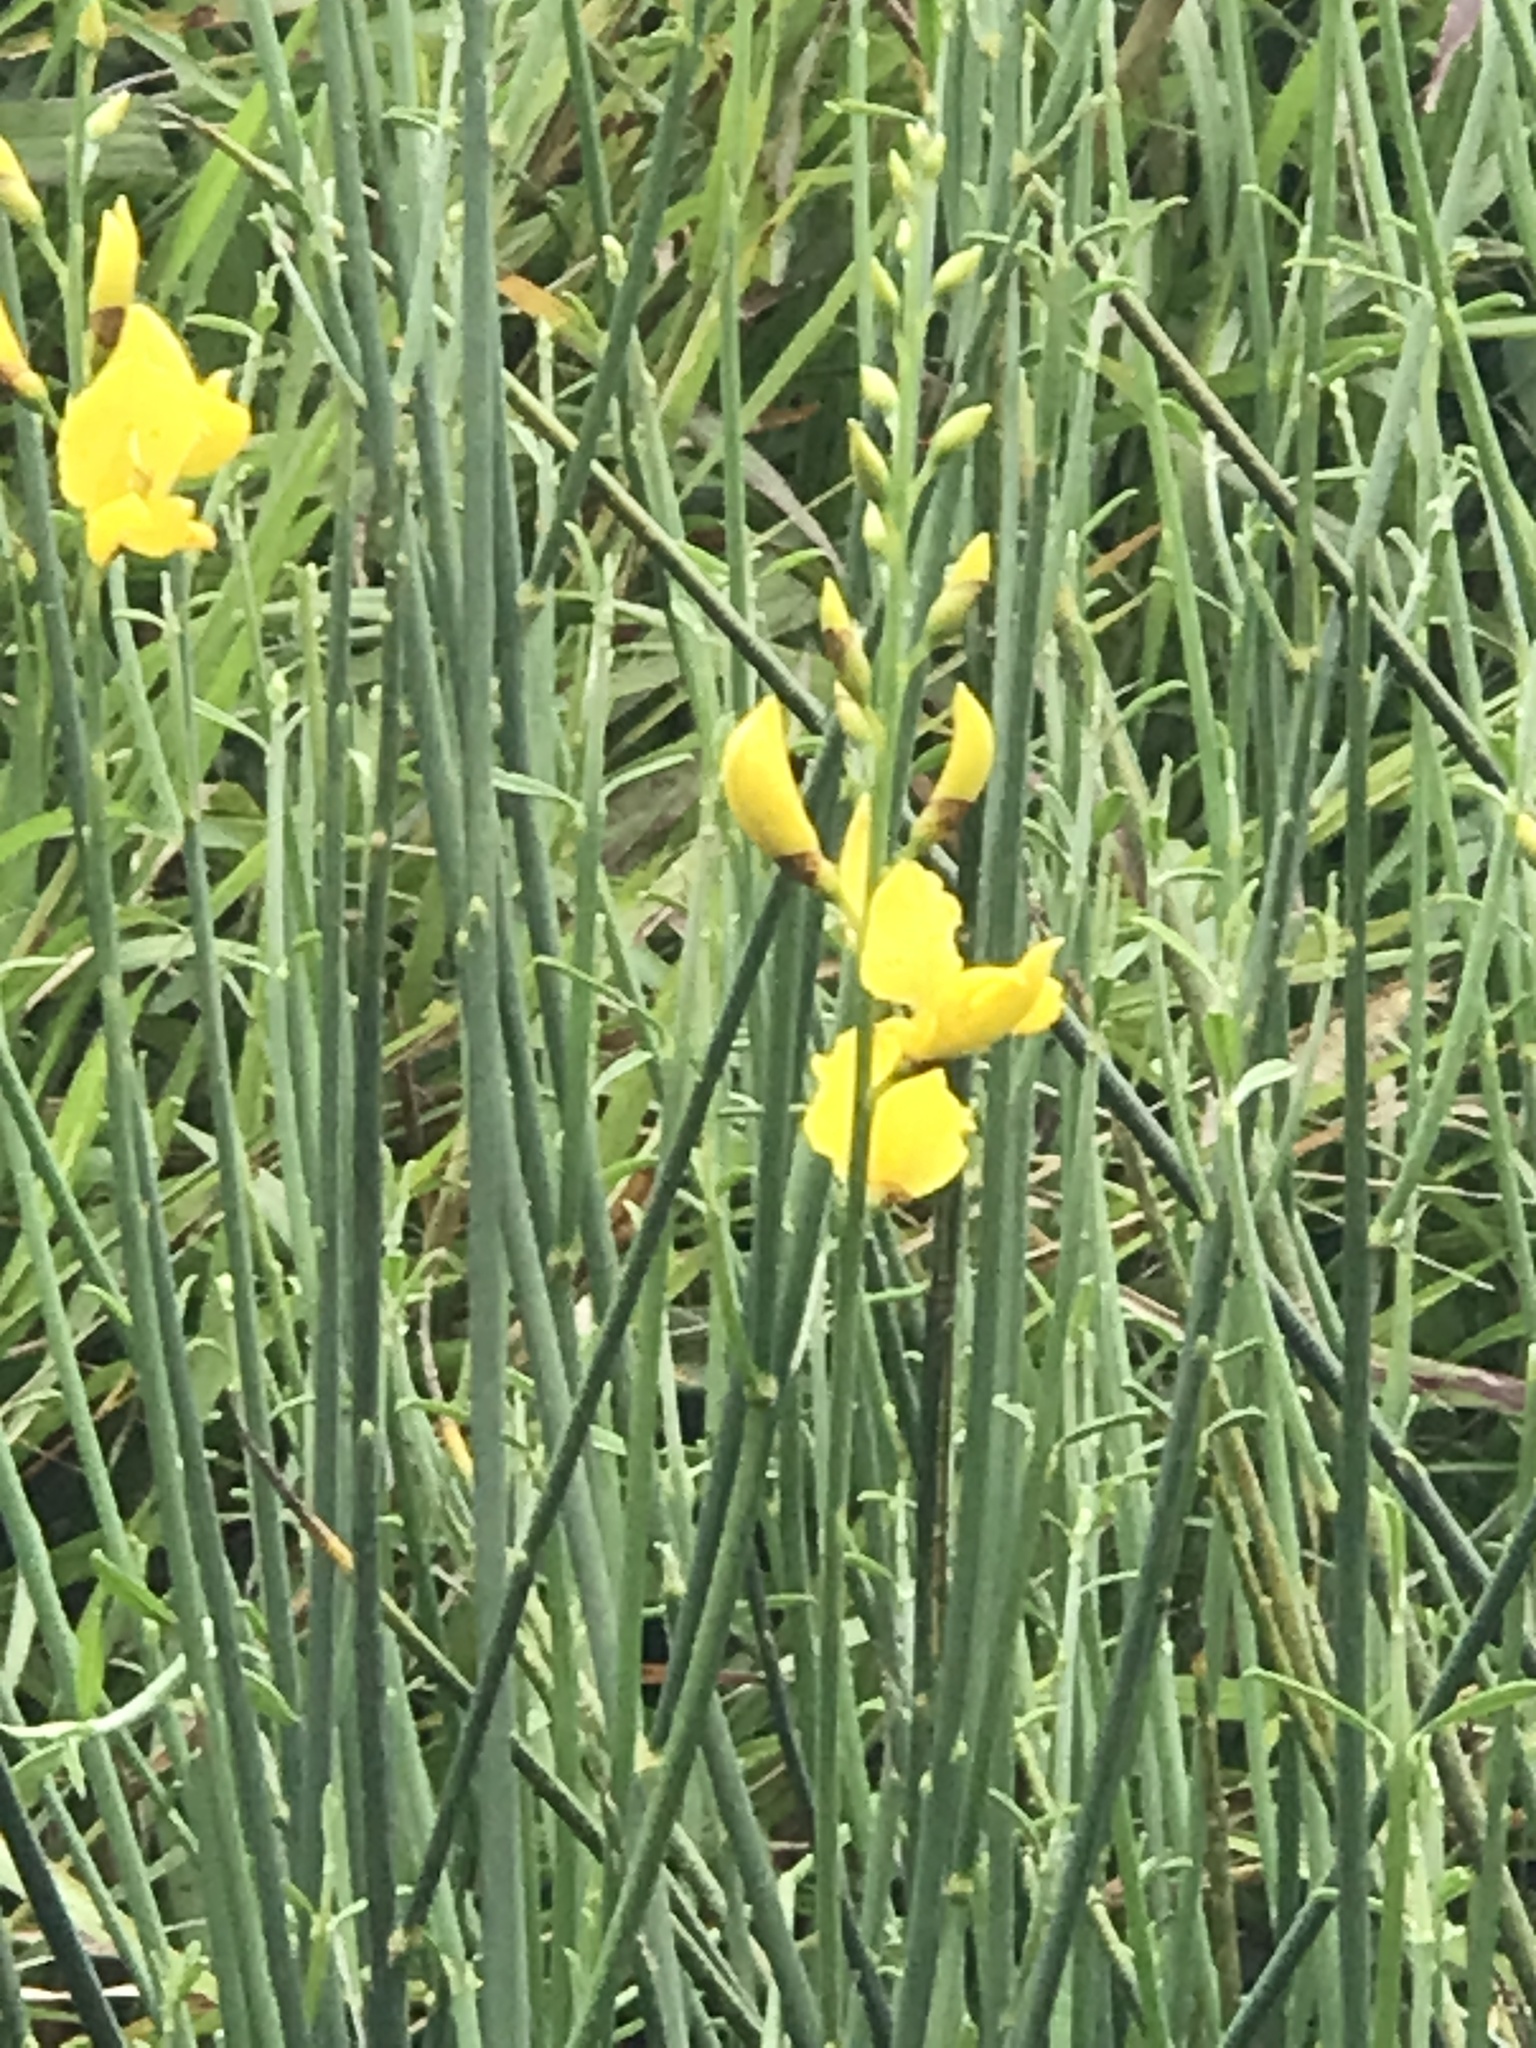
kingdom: Plantae
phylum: Tracheophyta
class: Magnoliopsida
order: Fabales
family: Fabaceae
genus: Spartium
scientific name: Spartium junceum
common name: Spanish broom
